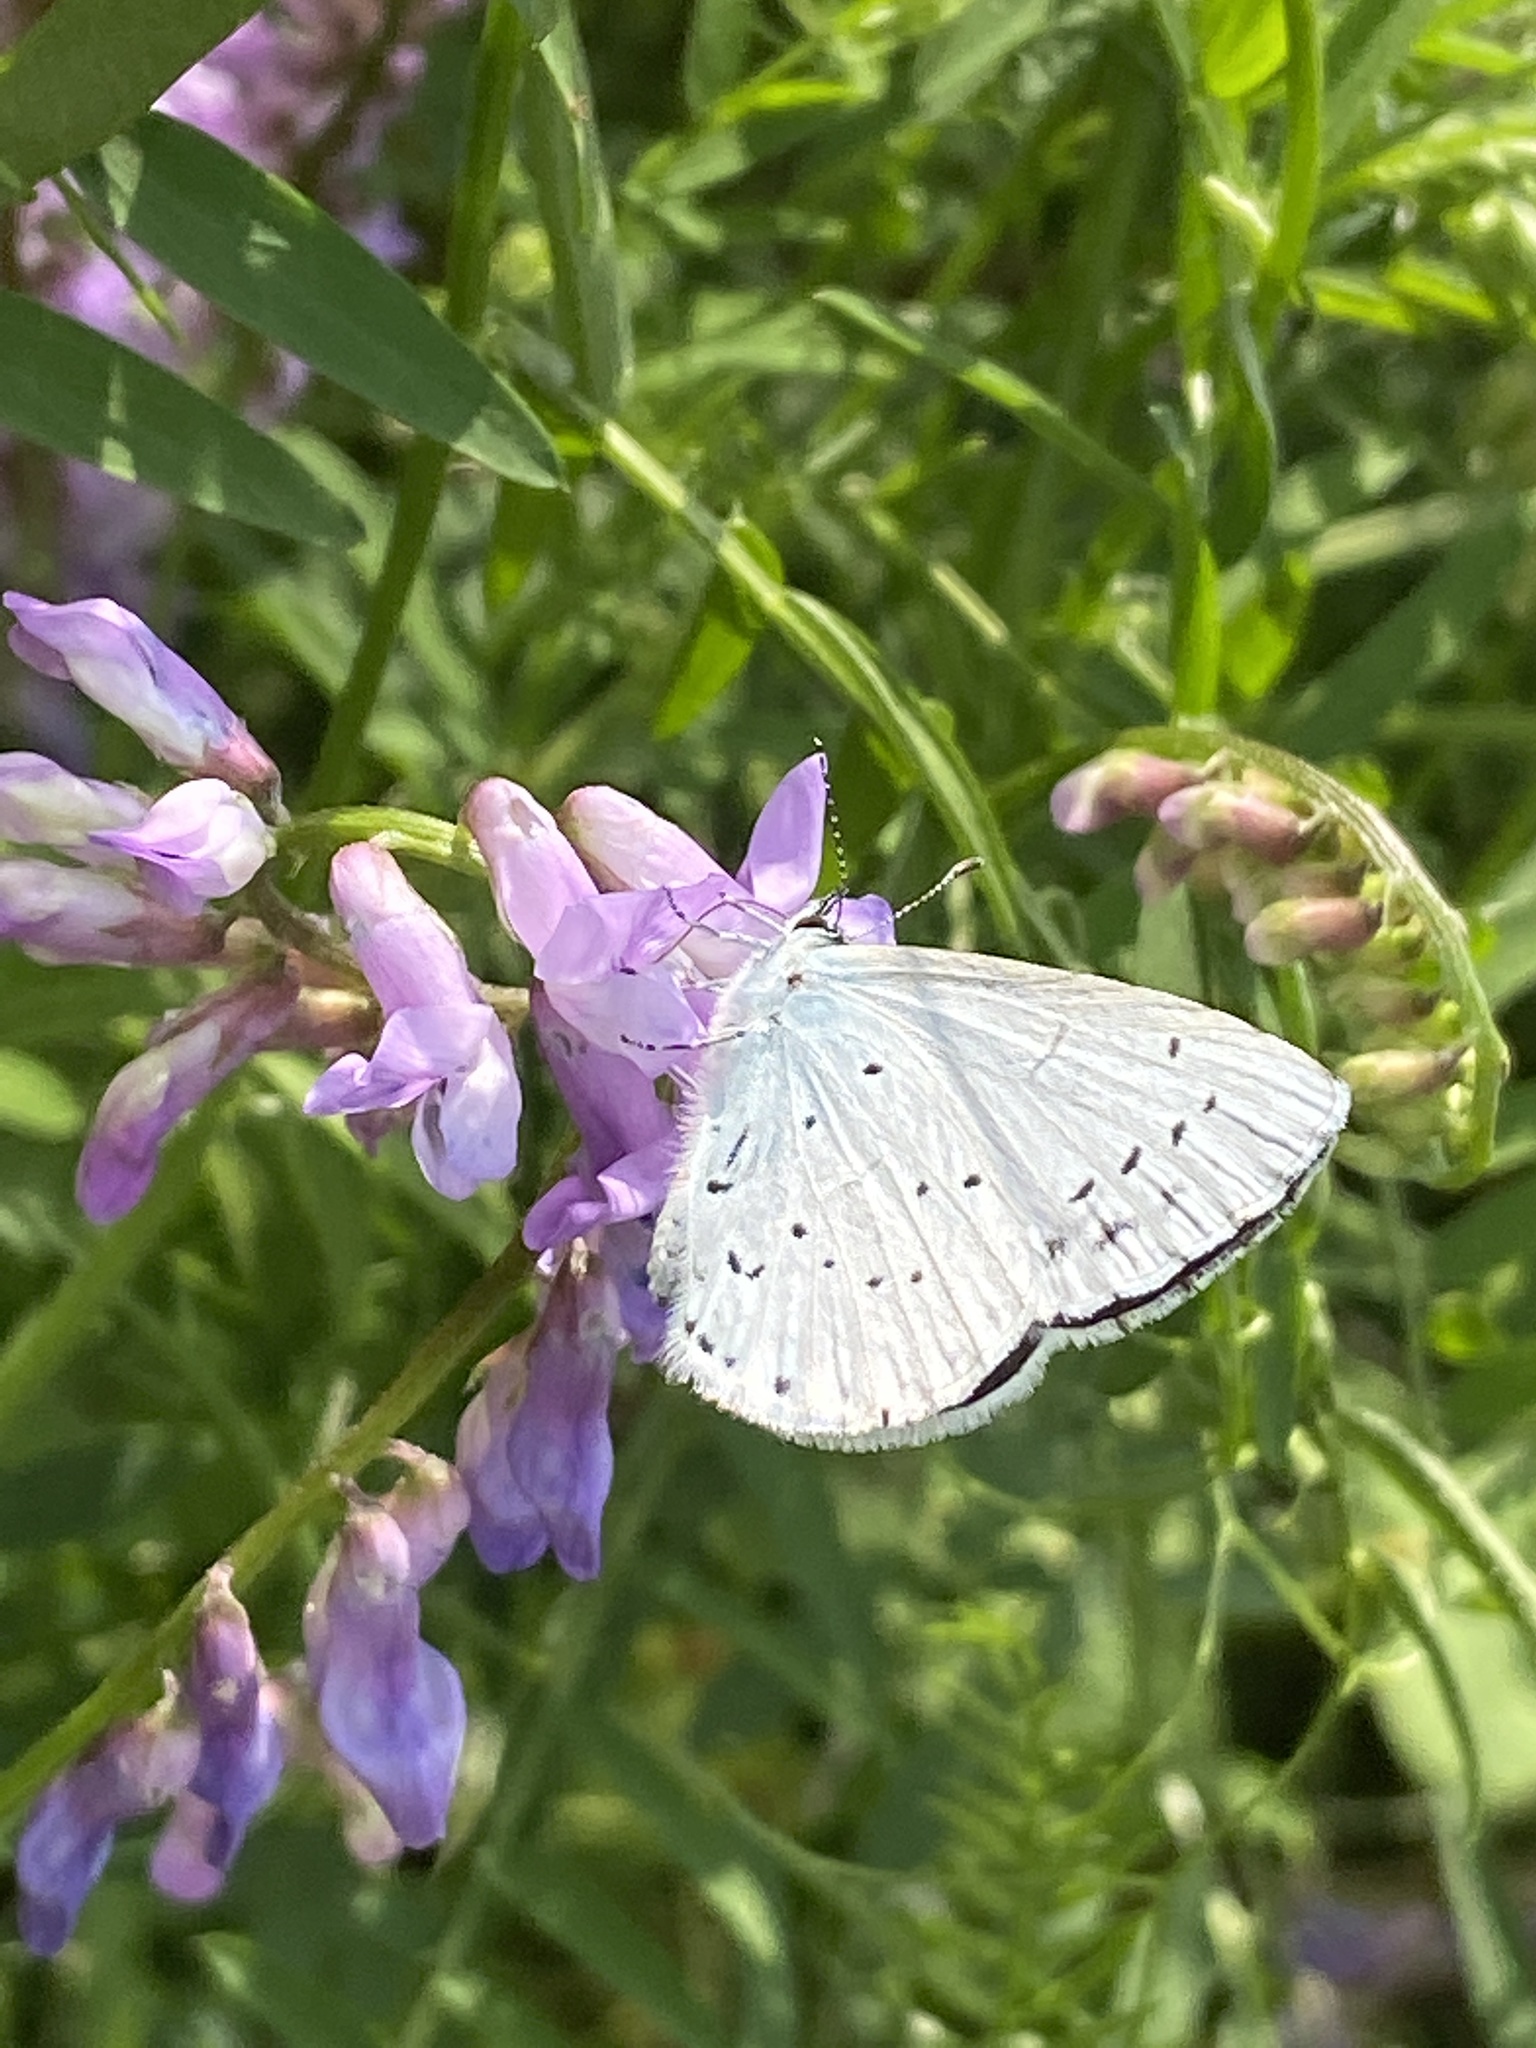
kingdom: Animalia
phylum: Arthropoda
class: Insecta
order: Lepidoptera
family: Lycaenidae
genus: Celastrina
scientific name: Celastrina argiolus
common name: Holly blue
